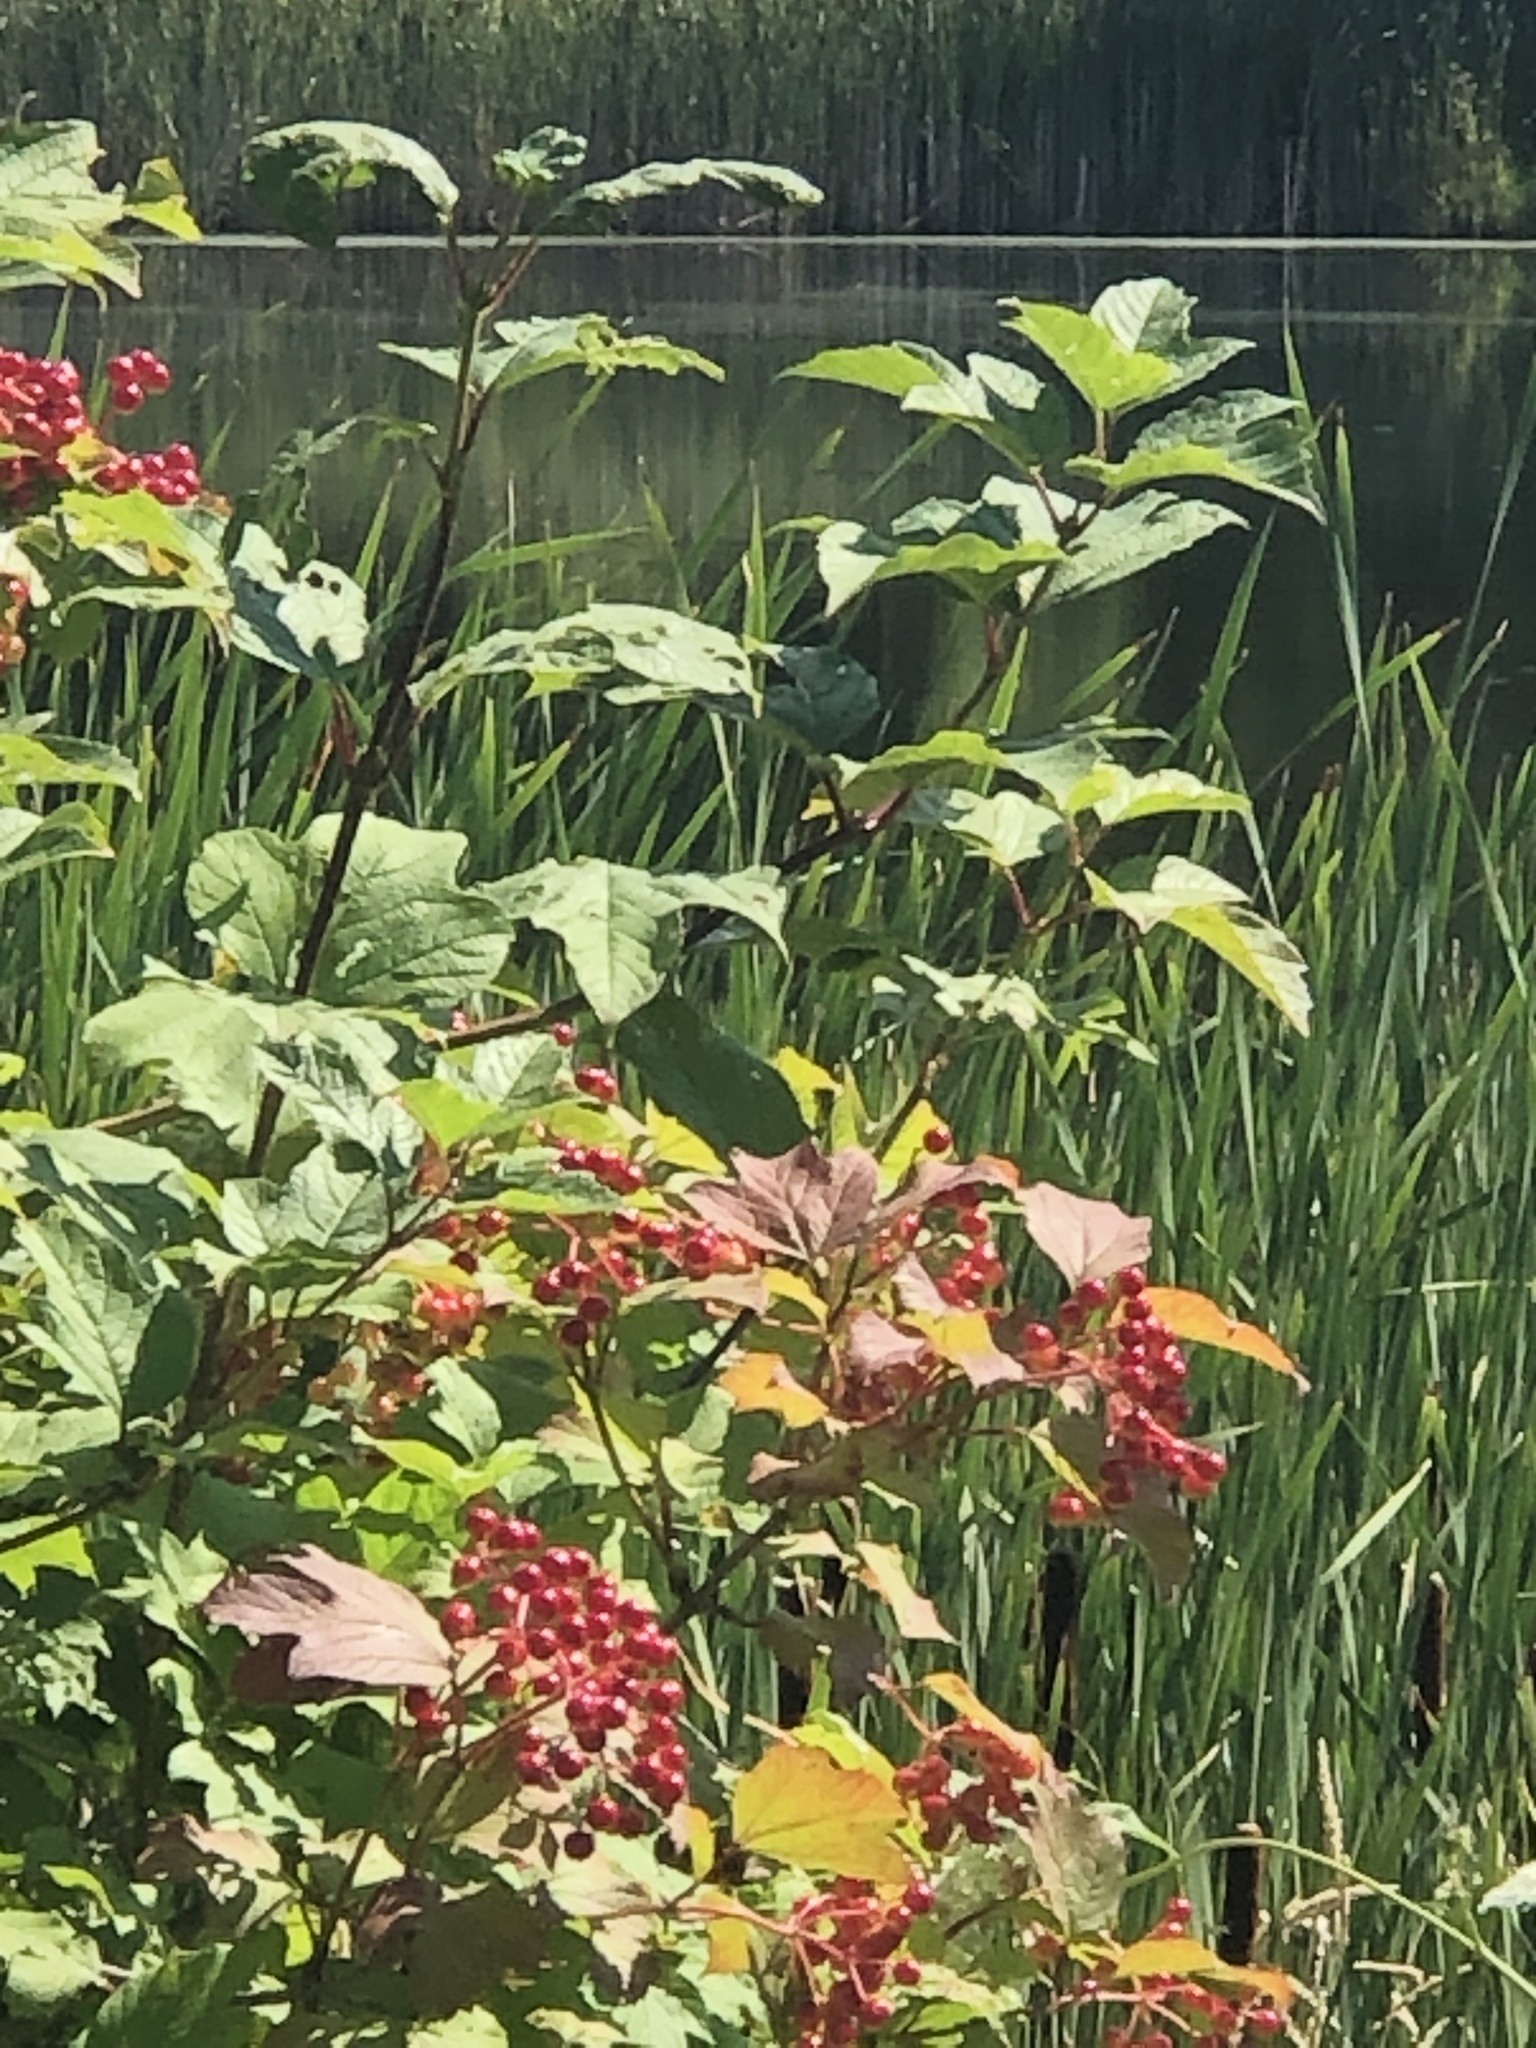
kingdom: Plantae
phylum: Tracheophyta
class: Magnoliopsida
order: Dipsacales
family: Viburnaceae
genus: Viburnum
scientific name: Viburnum opulus
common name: Guelder-rose
